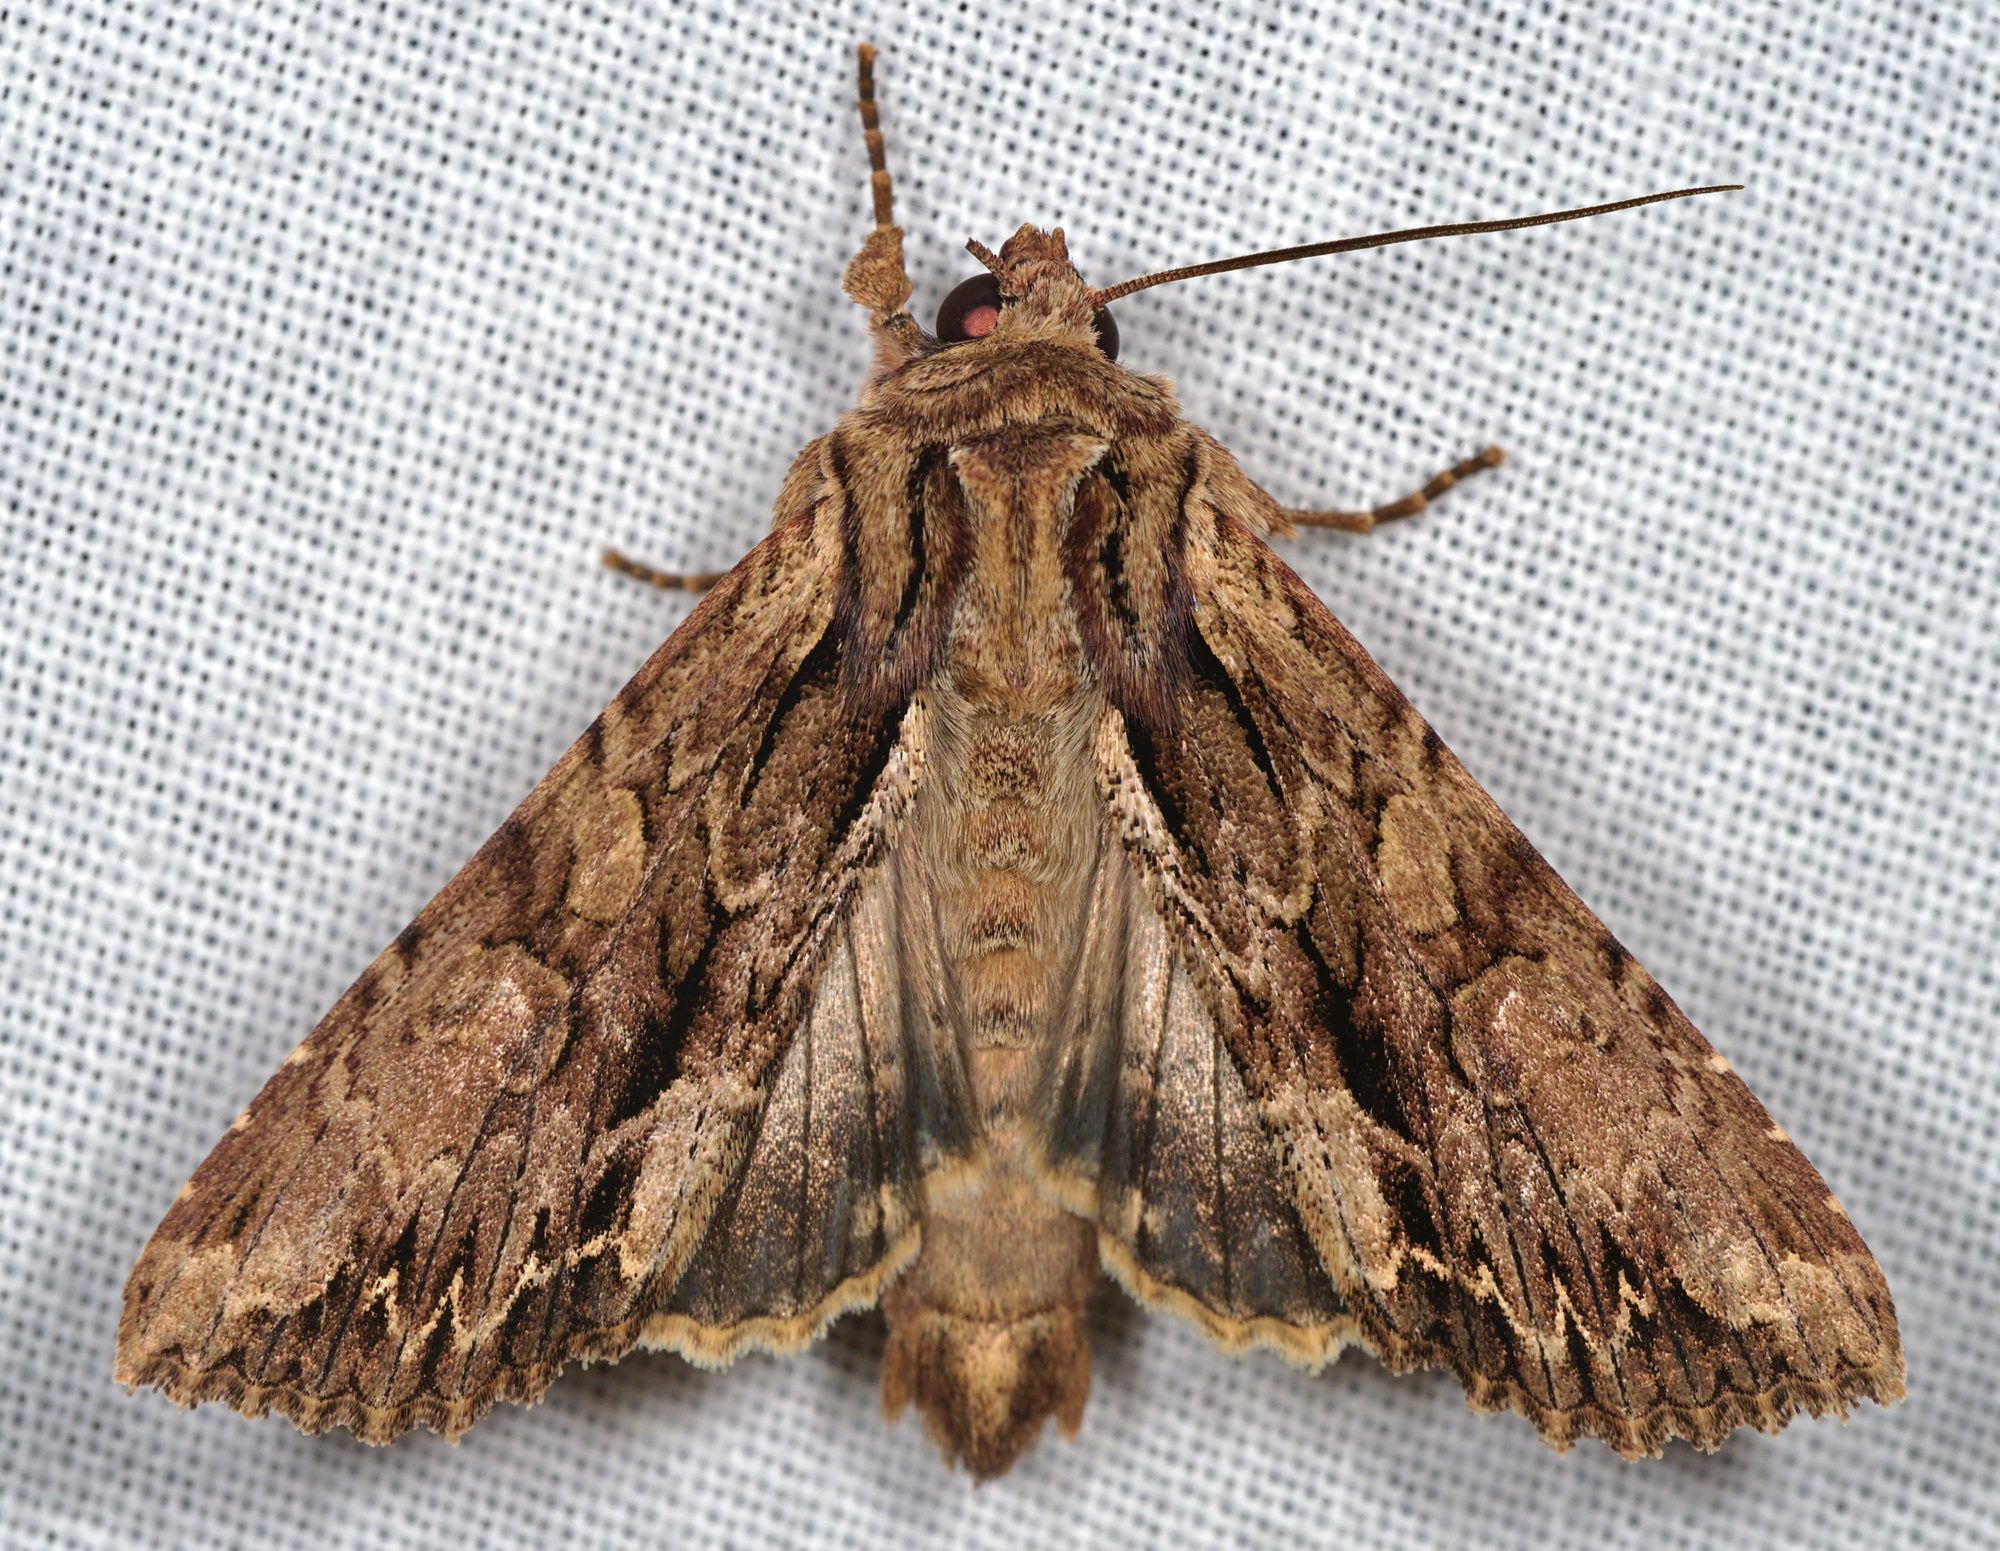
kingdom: Animalia
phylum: Arthropoda
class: Insecta
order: Lepidoptera
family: Noctuidae
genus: Apamea
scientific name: Apamea monoglypha
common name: Dark arches
